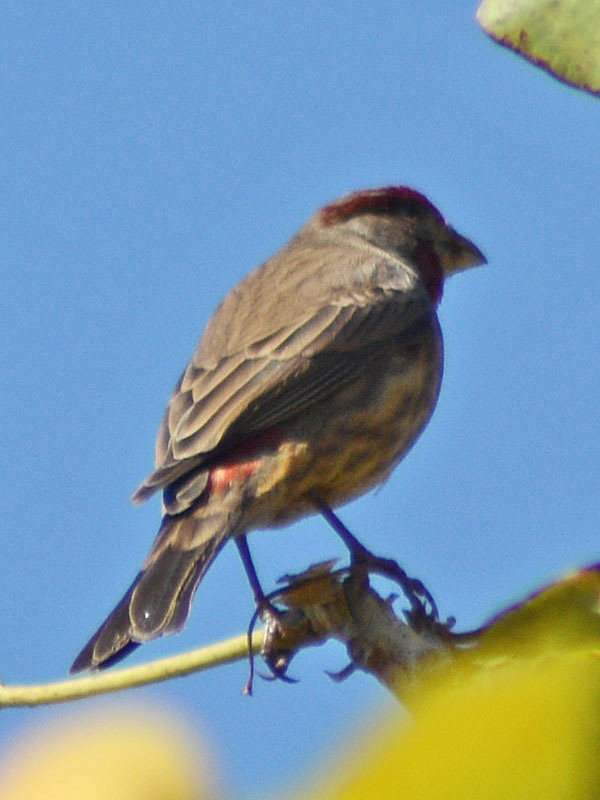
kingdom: Animalia
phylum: Chordata
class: Aves
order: Passeriformes
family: Fringillidae
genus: Haemorhous
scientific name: Haemorhous mexicanus
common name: House finch
